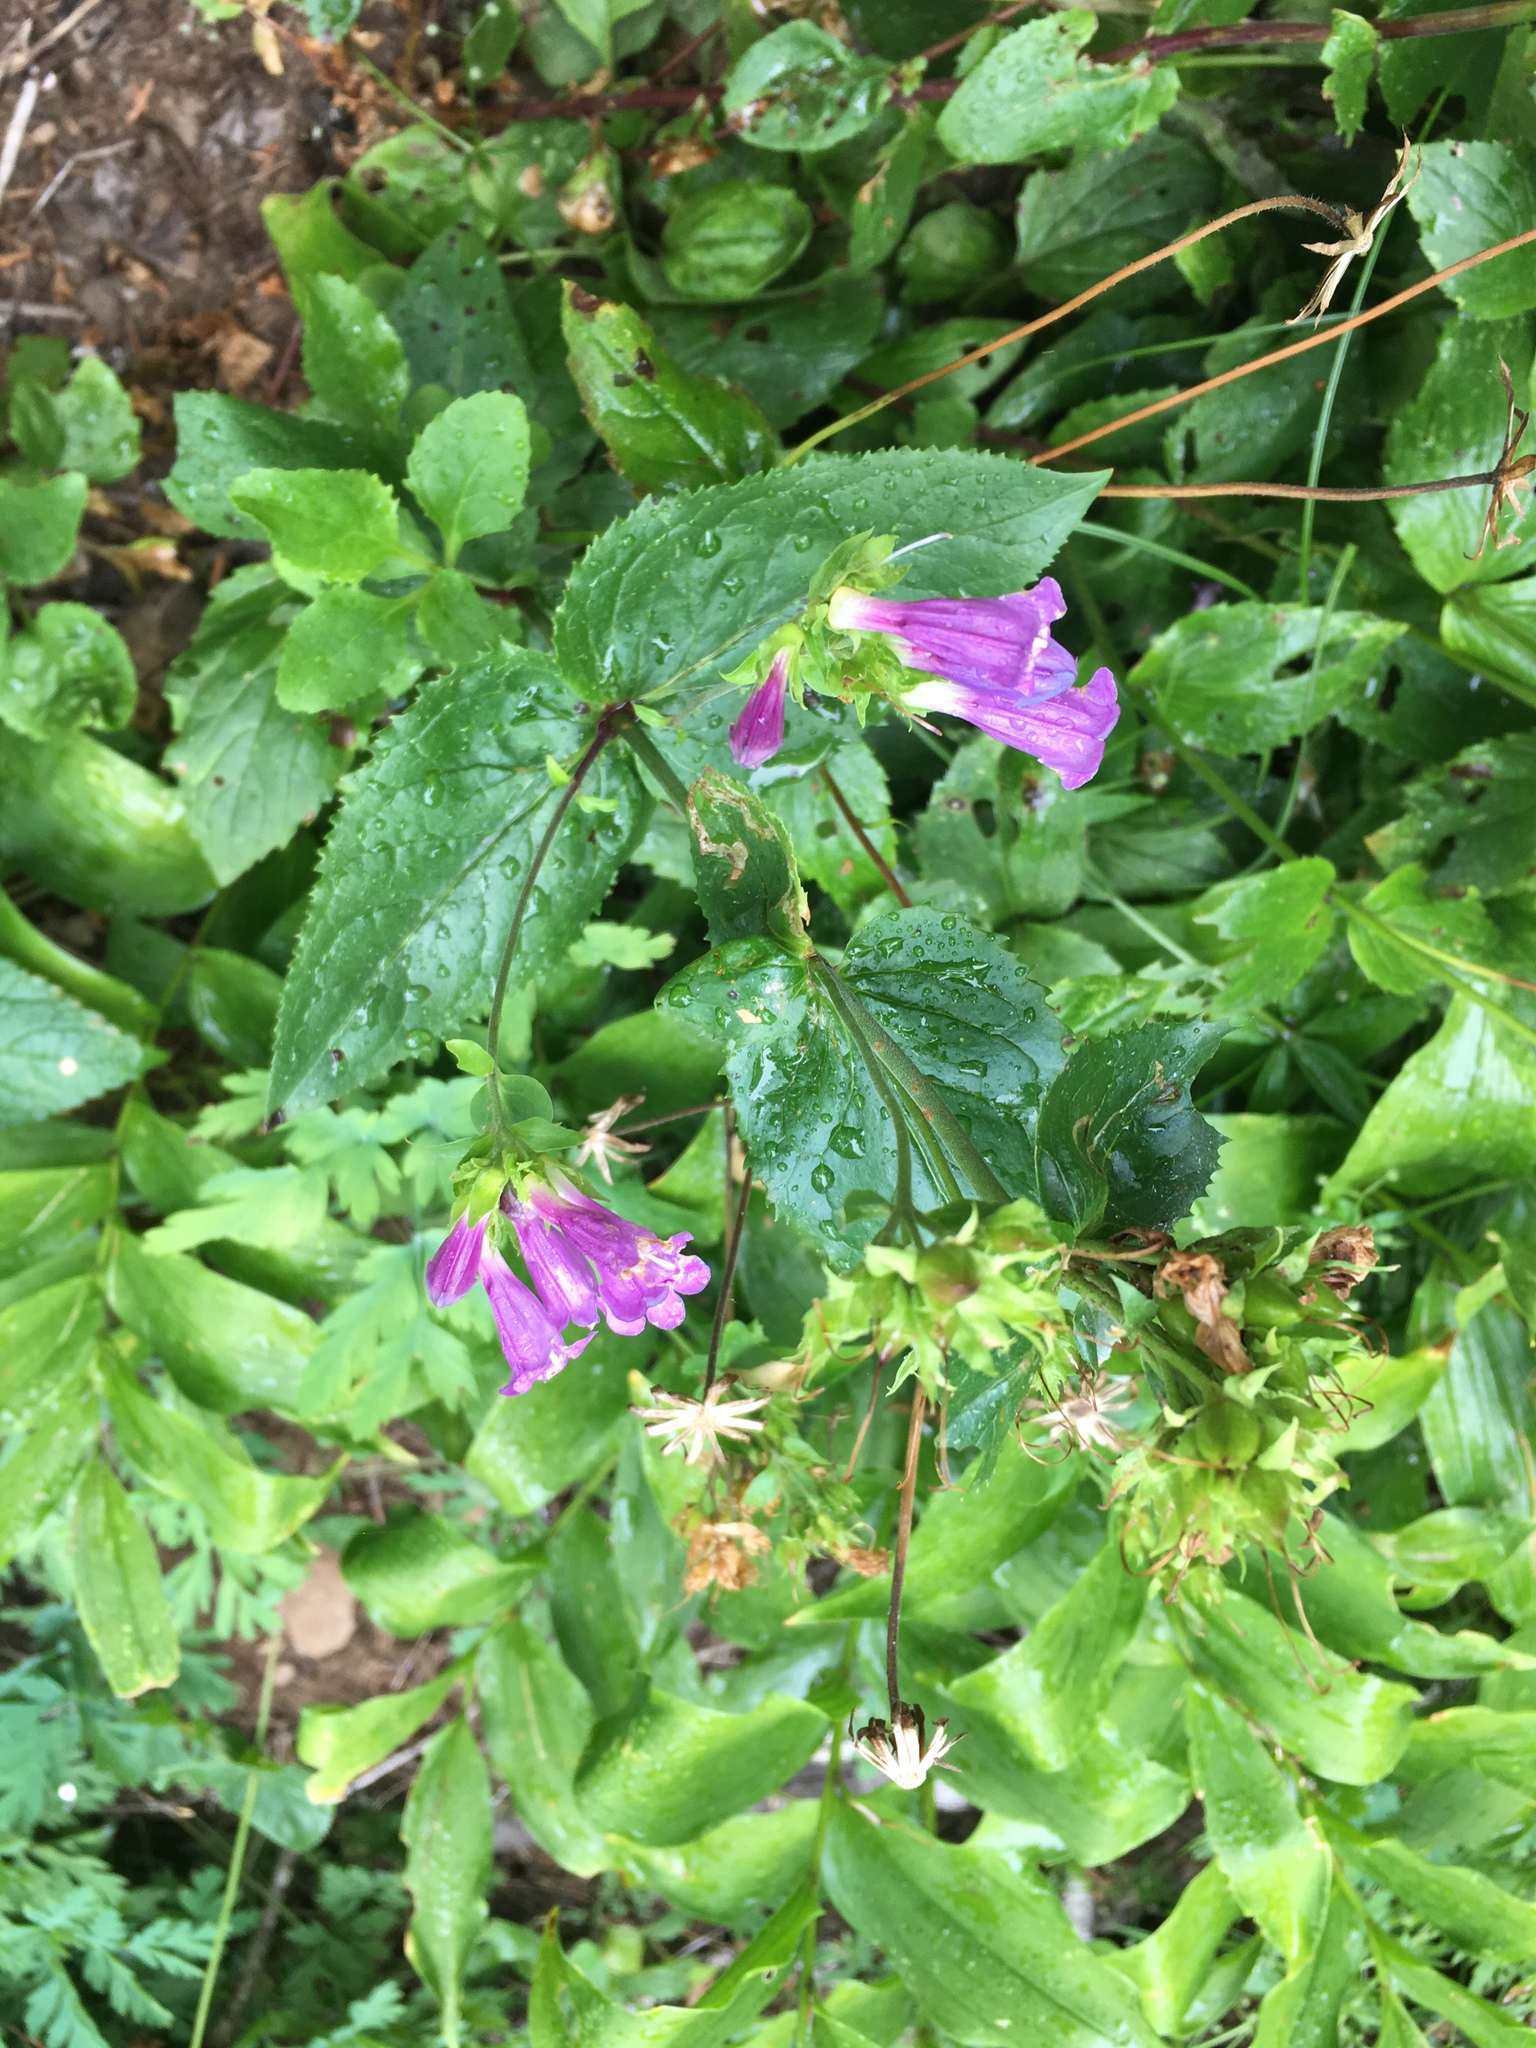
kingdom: Plantae
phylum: Tracheophyta
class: Magnoliopsida
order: Lamiales
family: Plantaginaceae
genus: Penstemon
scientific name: Penstemon serrulatus
